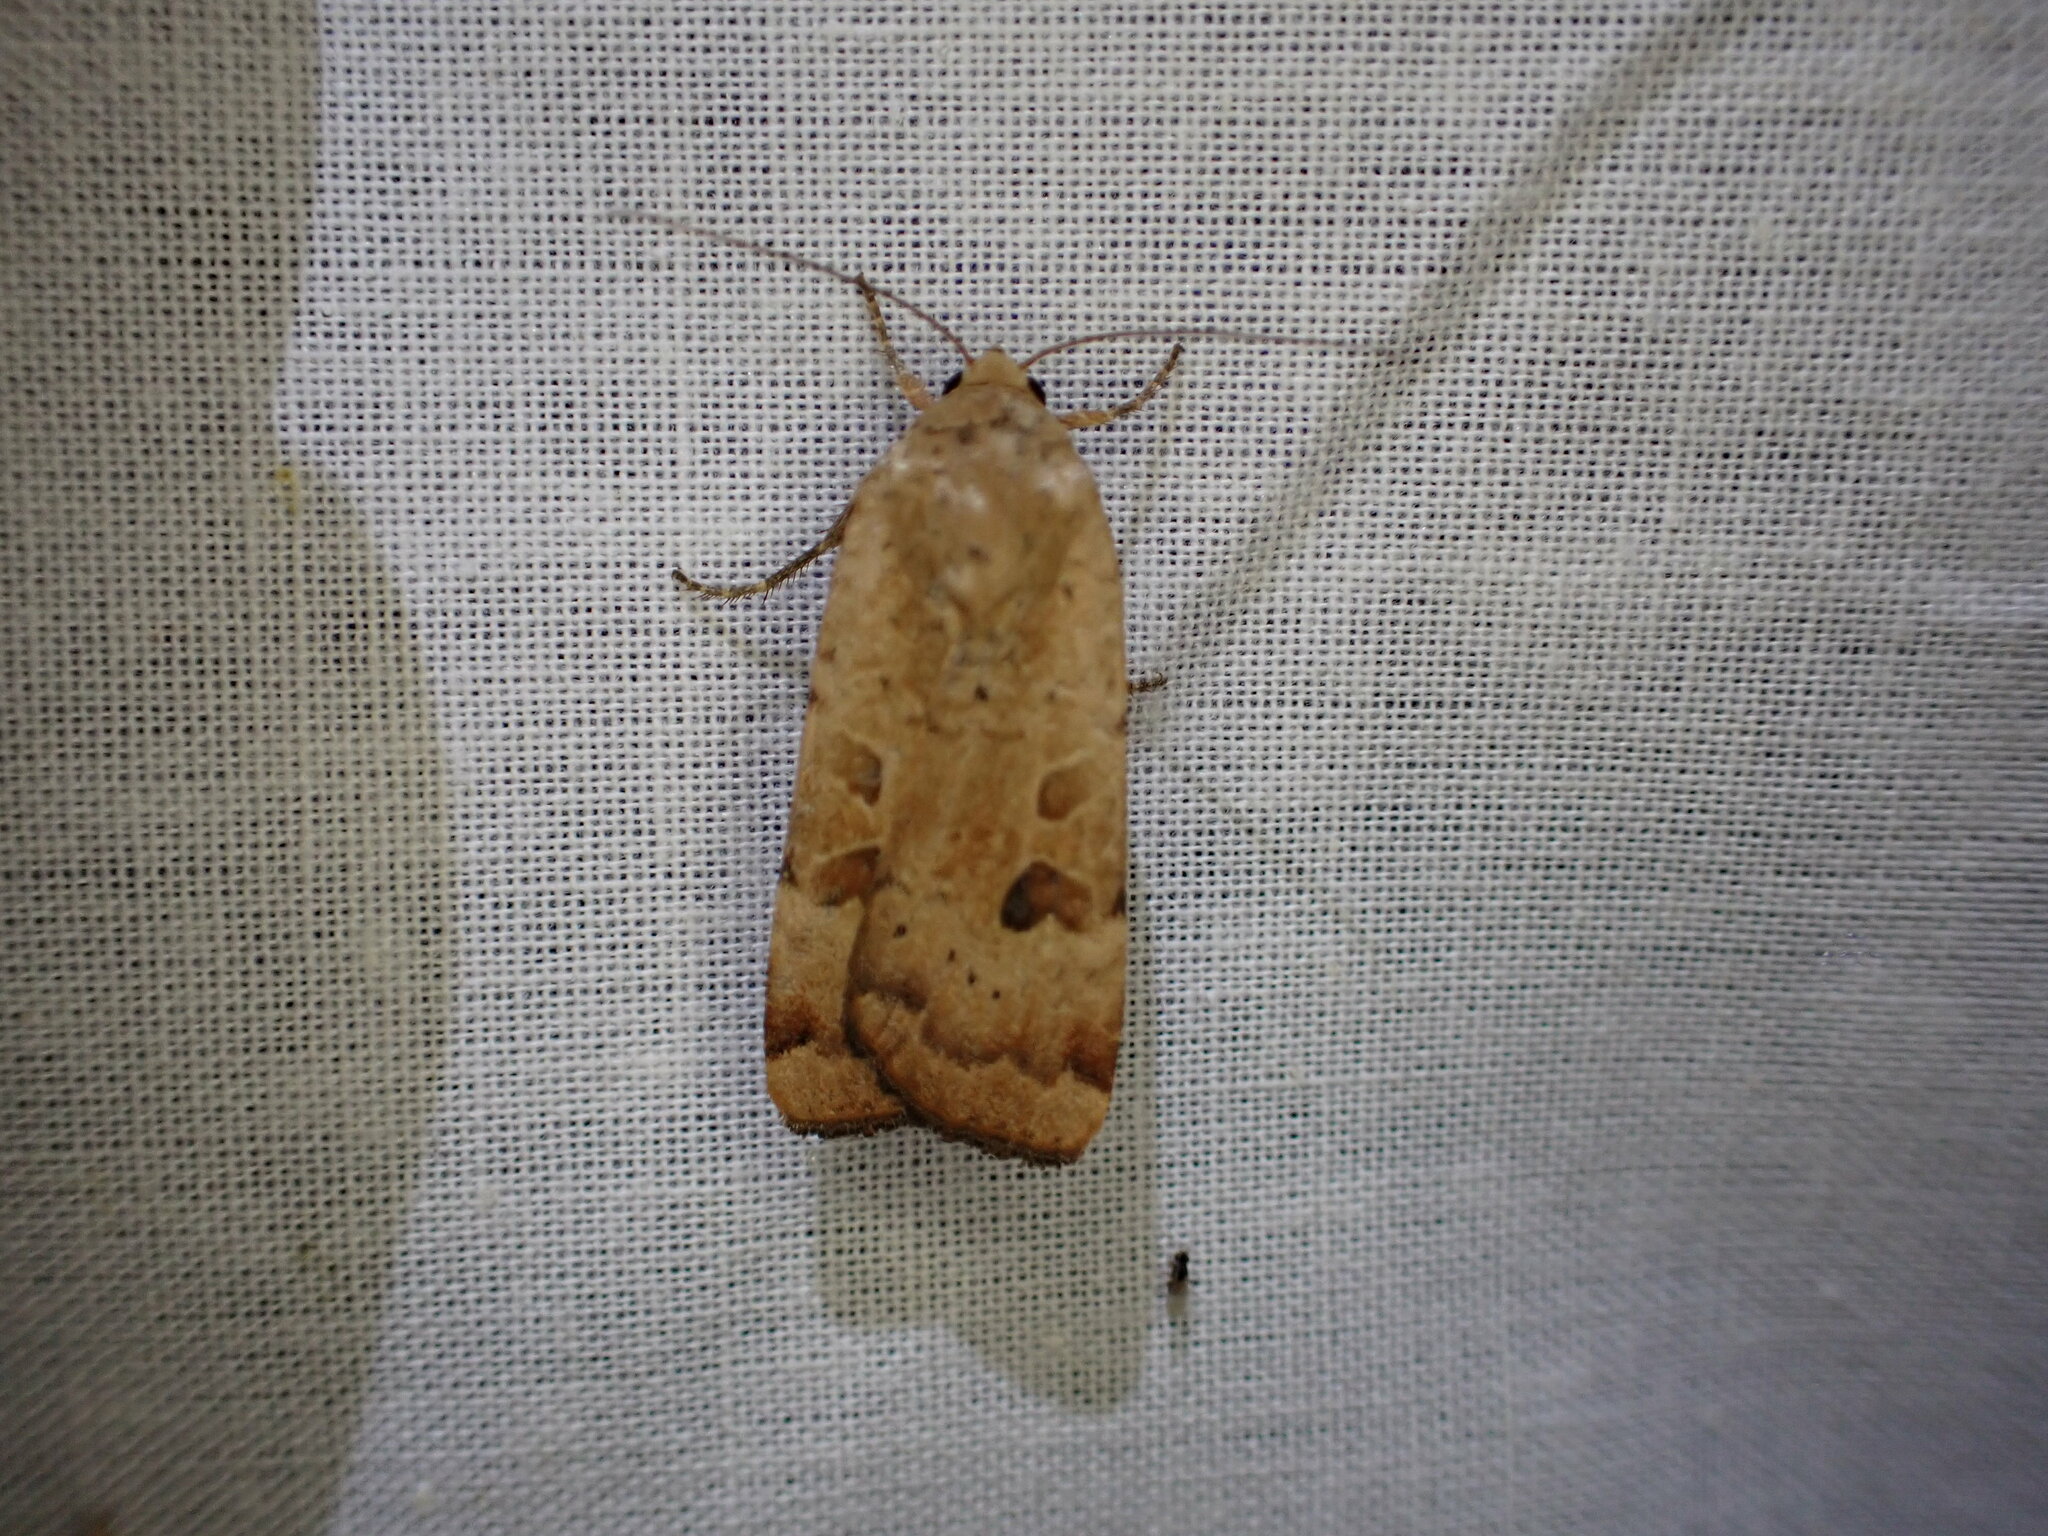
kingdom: Animalia
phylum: Arthropoda
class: Insecta
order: Lepidoptera
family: Noctuidae
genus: Noctua
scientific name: Noctua interposita
